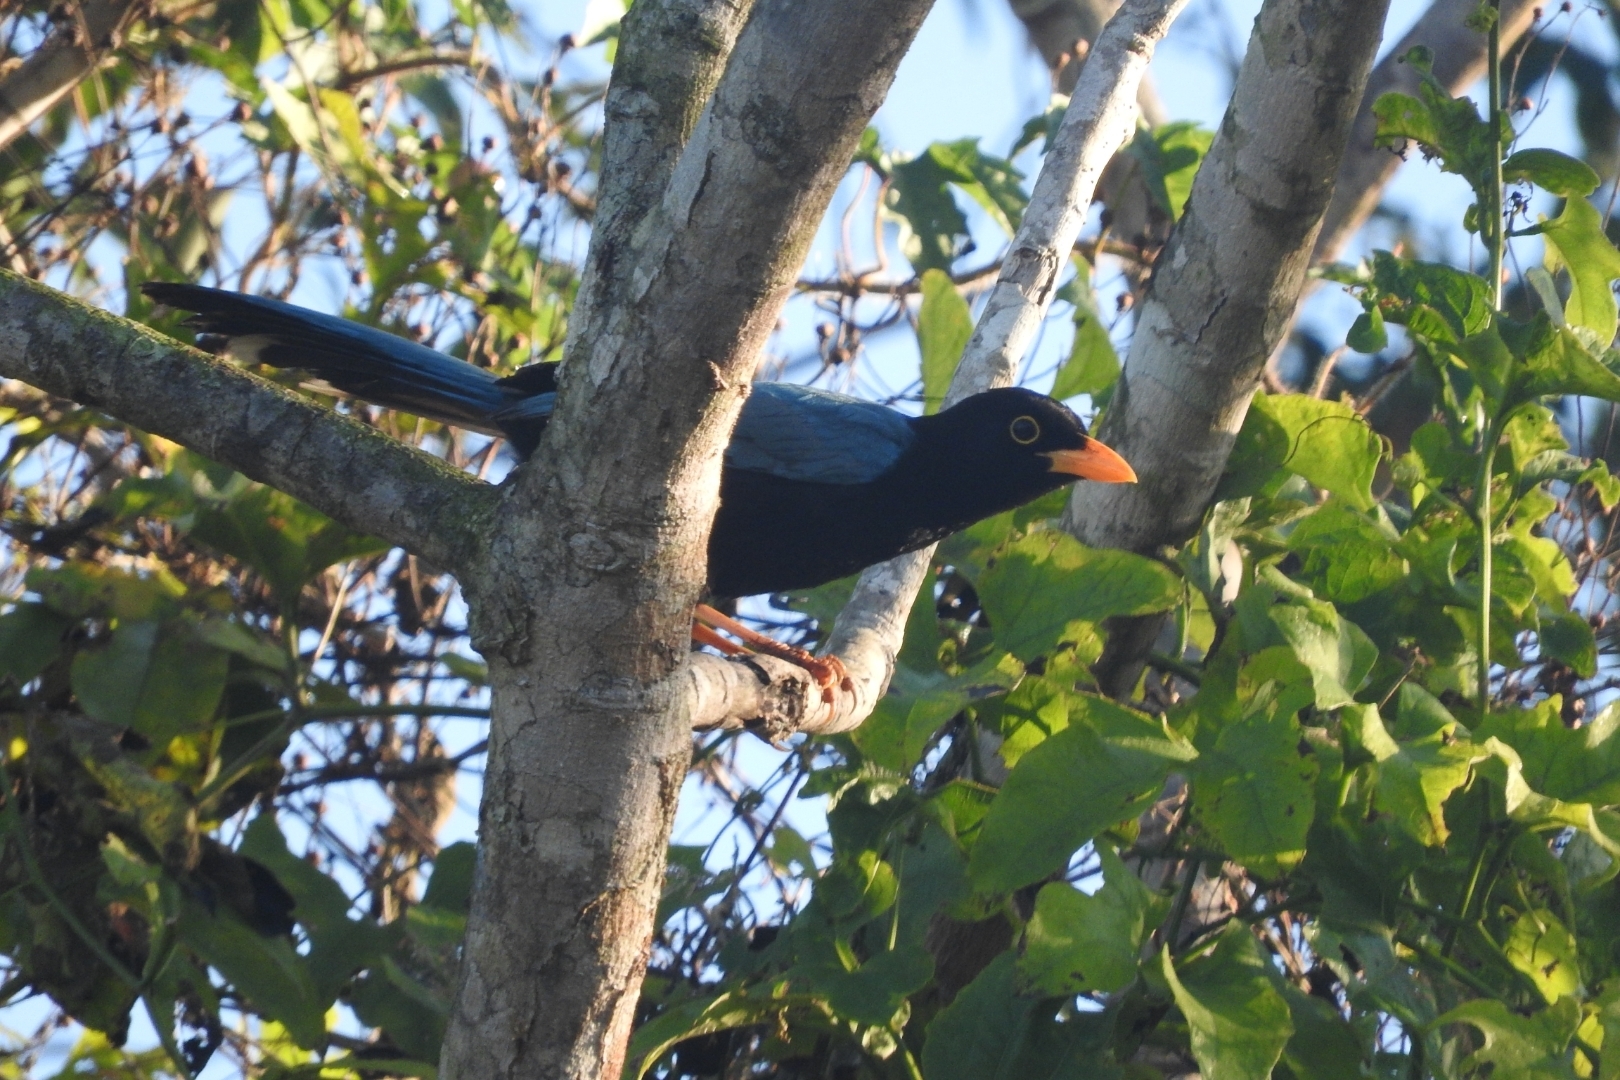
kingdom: Animalia
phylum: Chordata
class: Aves
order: Passeriformes
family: Corvidae
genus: Cyanocorax
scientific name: Cyanocorax yucatanicus
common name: Yucatan jay
